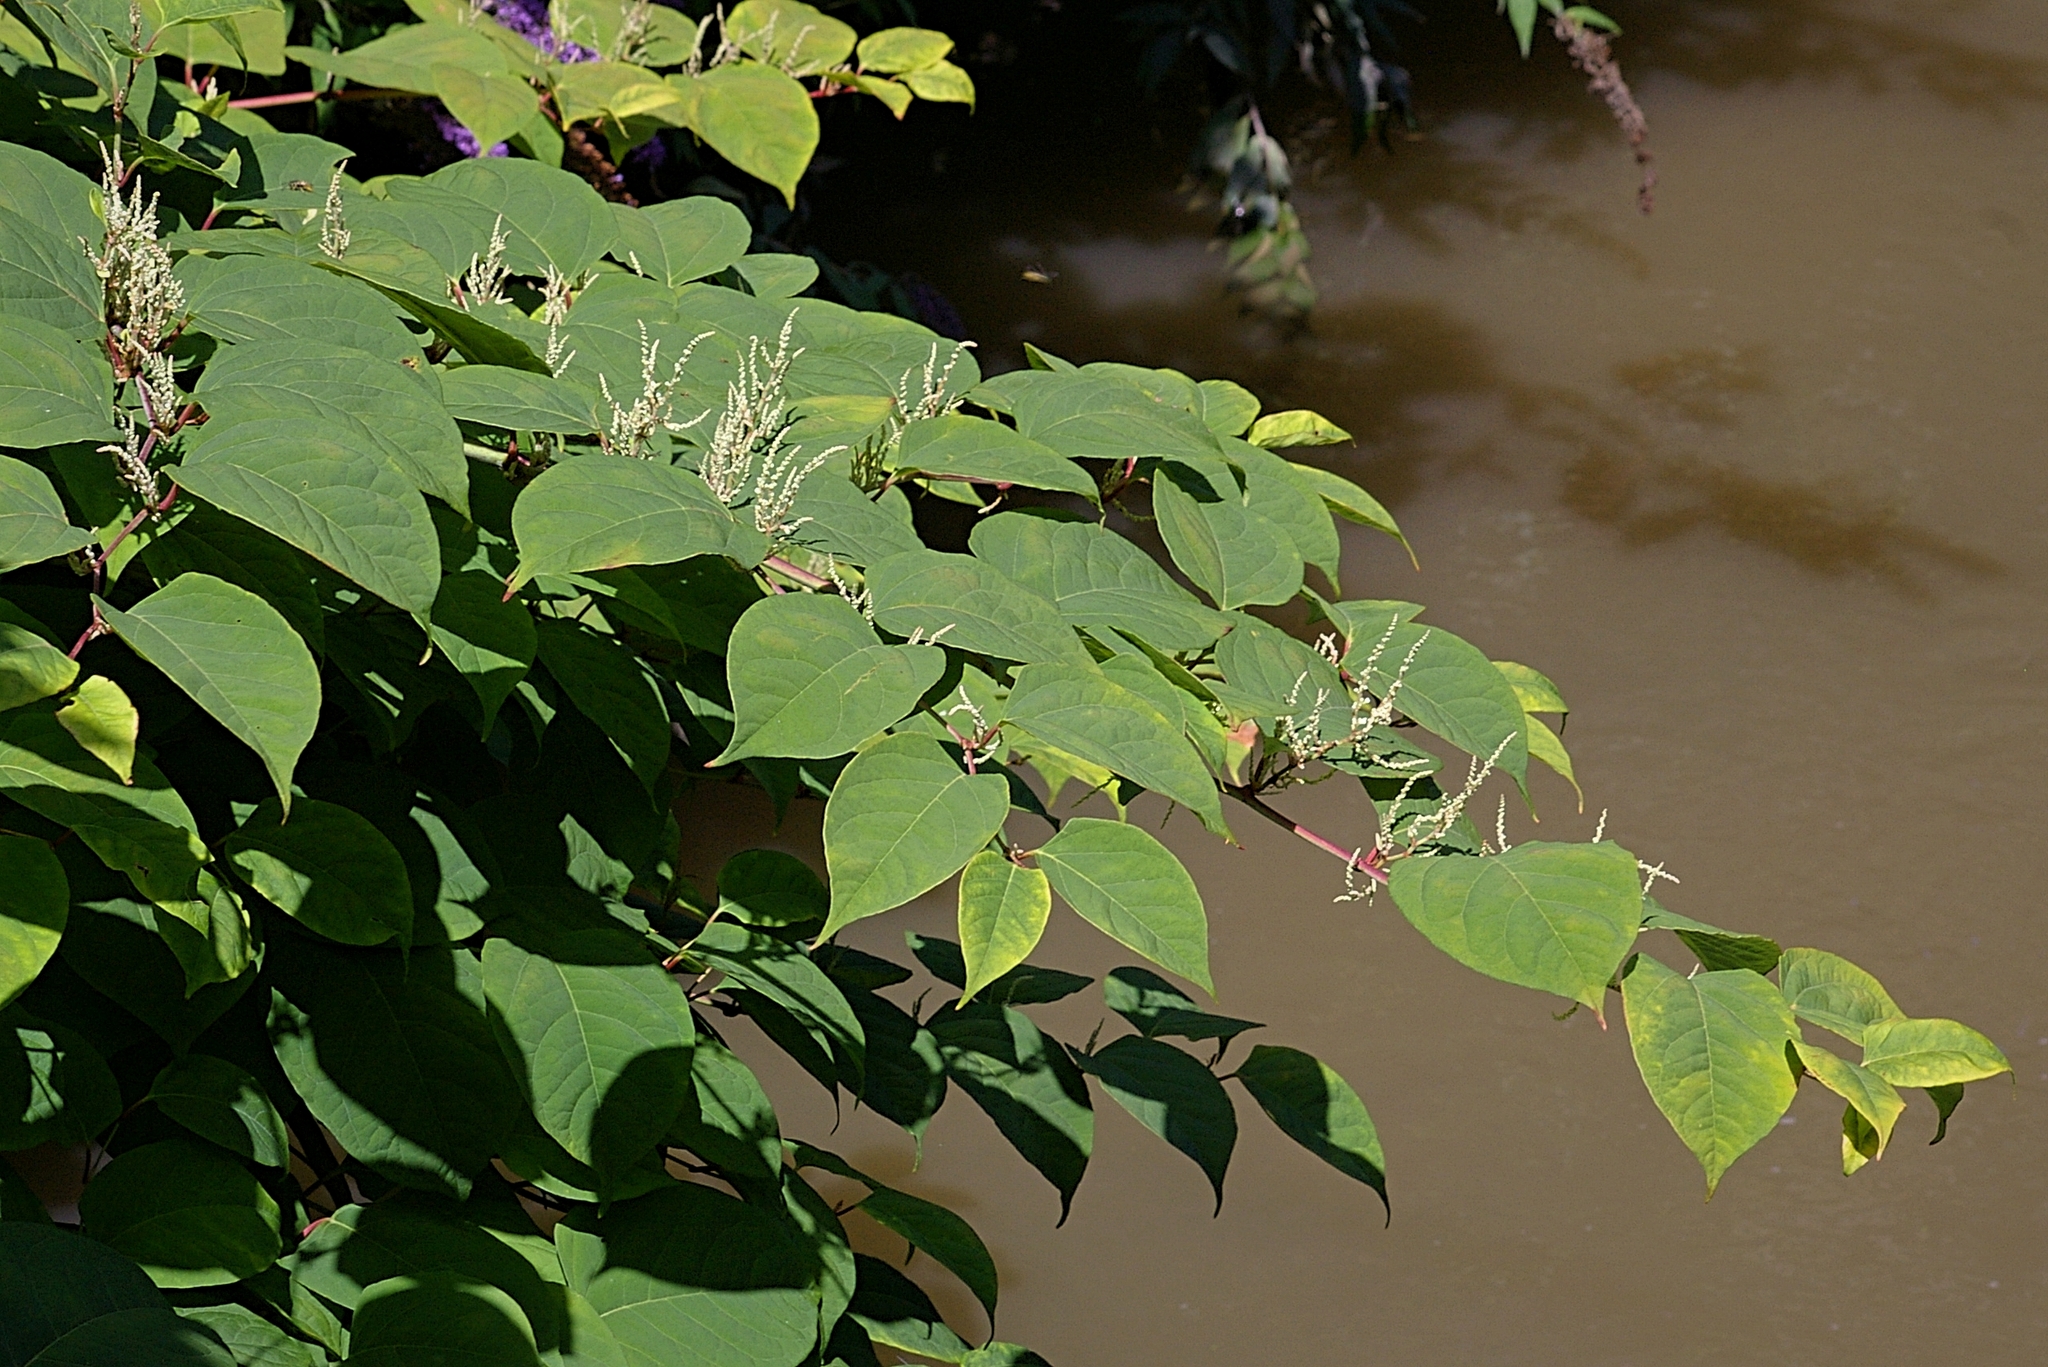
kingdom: Plantae
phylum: Tracheophyta
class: Magnoliopsida
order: Caryophyllales
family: Polygonaceae
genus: Reynoutria
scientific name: Reynoutria japonica
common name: Japanese knotweed
